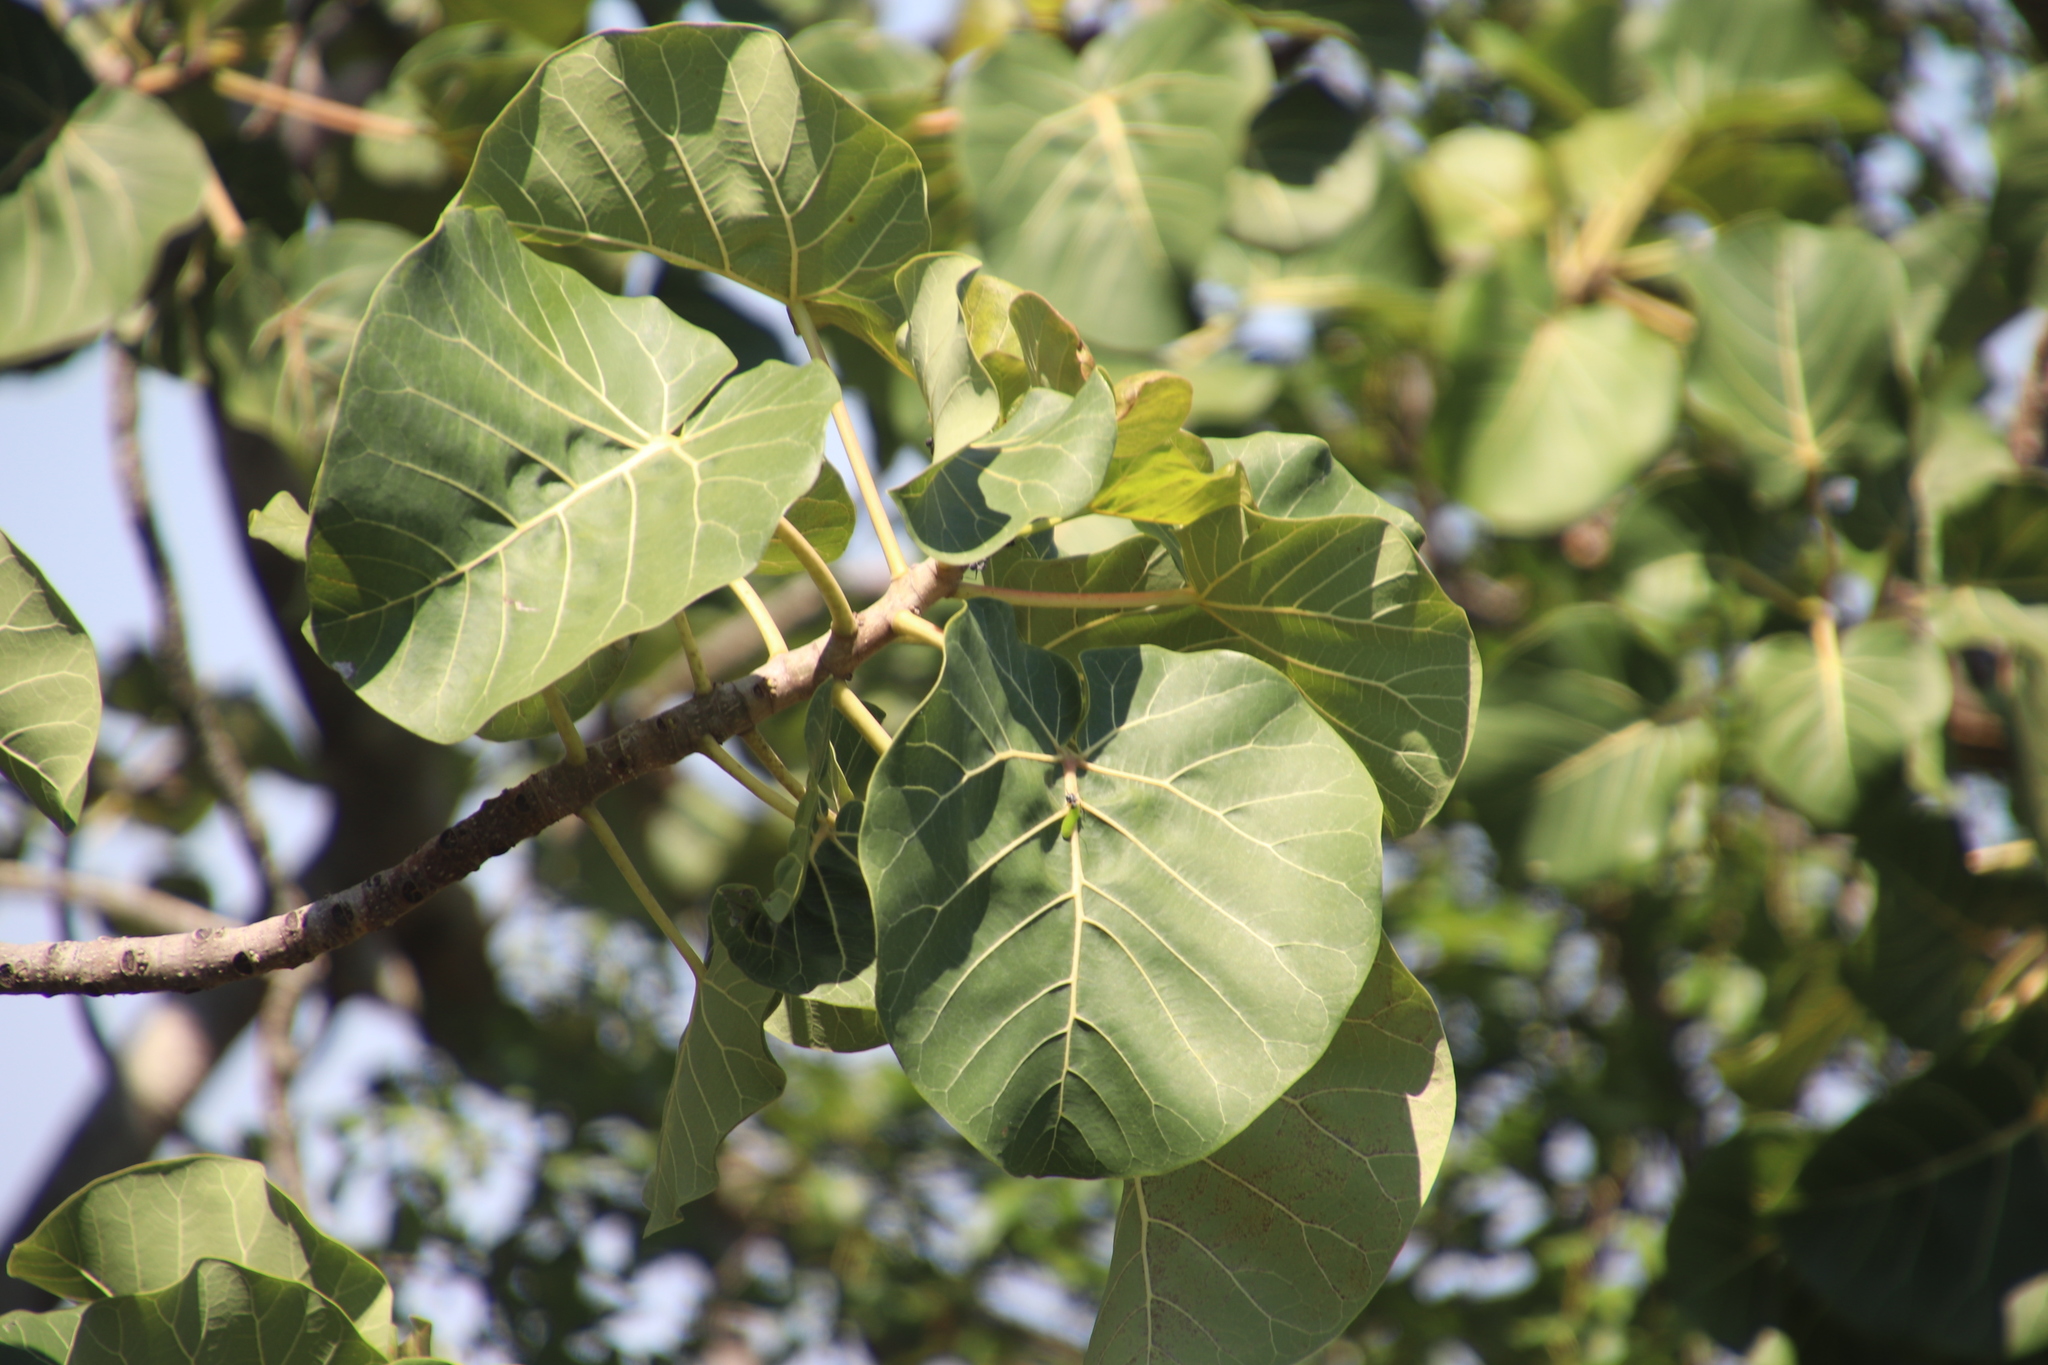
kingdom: Plantae
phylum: Tracheophyta
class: Magnoliopsida
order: Rosales
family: Moraceae
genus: Ficus
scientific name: Ficus abutilifolia
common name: Large-leaved rock fig
